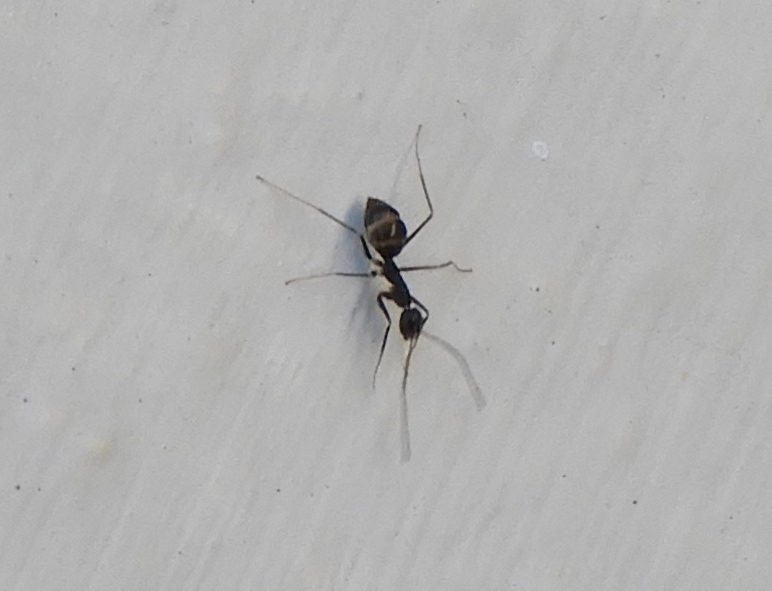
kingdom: Animalia
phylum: Arthropoda
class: Insecta
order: Hymenoptera
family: Formicidae
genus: Paratrechina
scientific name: Paratrechina longicornis
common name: Longhorned crazy ant
